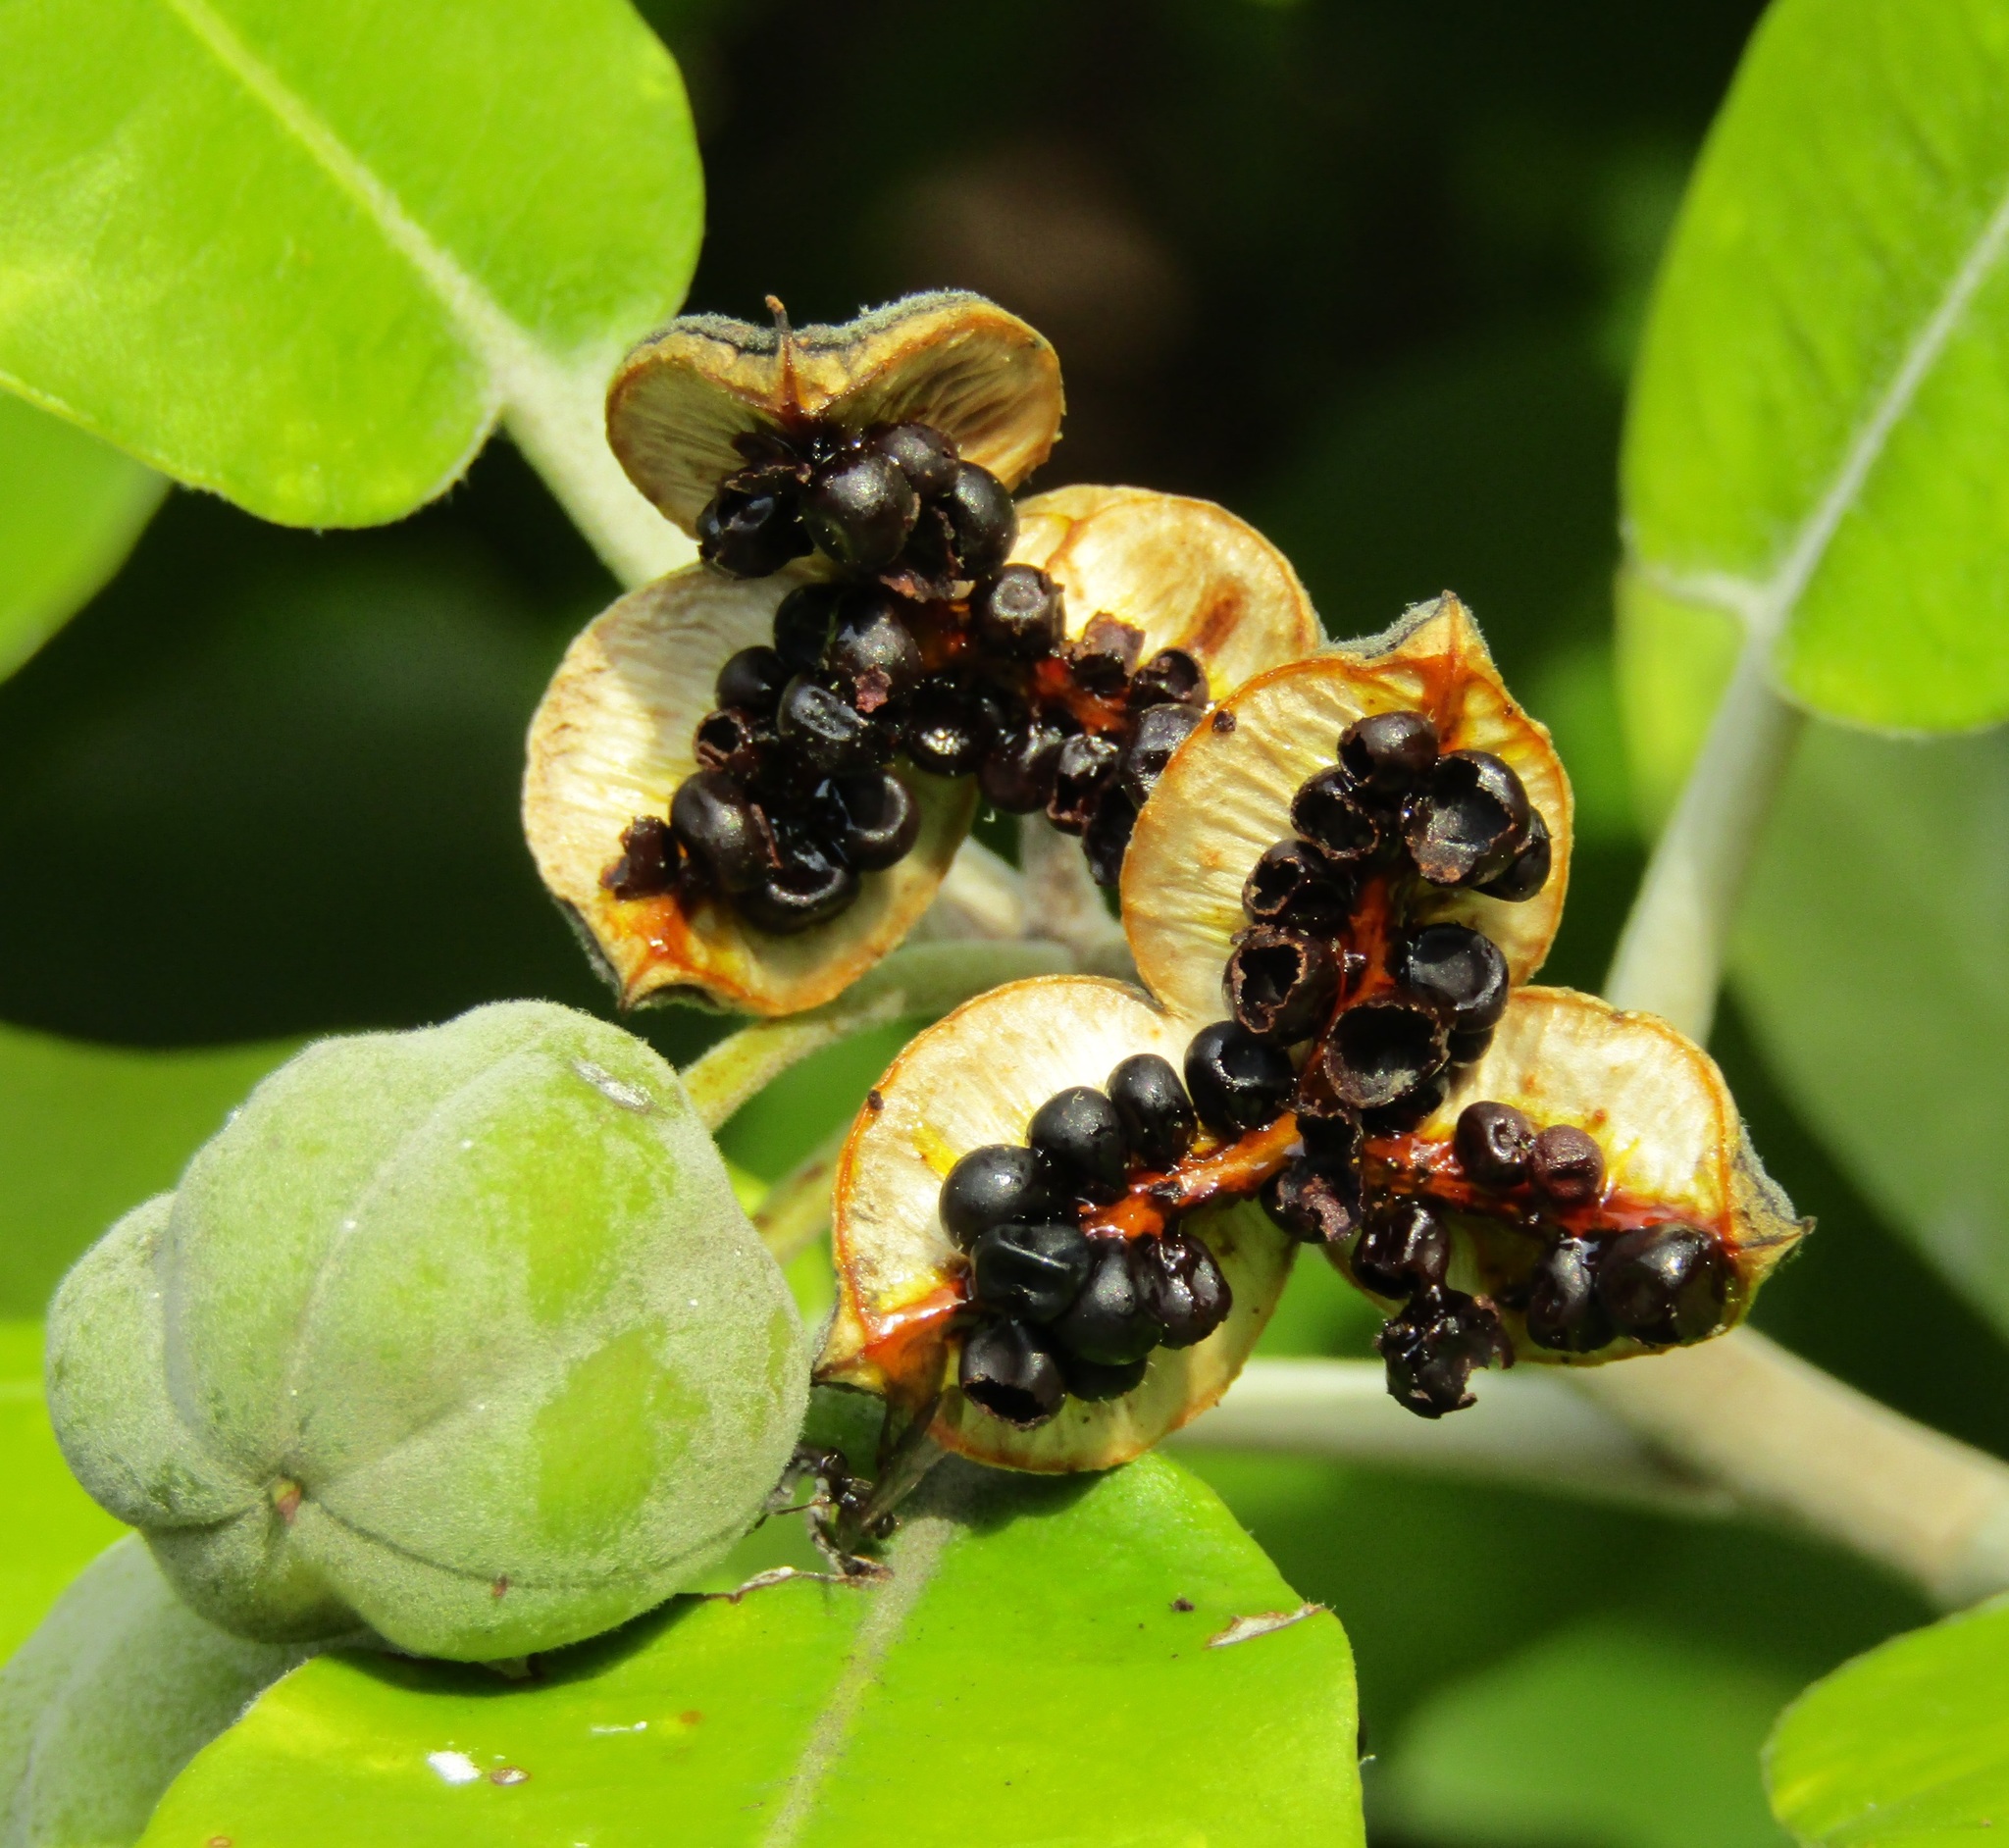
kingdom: Plantae
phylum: Tracheophyta
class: Magnoliopsida
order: Apiales
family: Pittosporaceae
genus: Pittosporum
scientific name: Pittosporum crassifolium
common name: Karo
